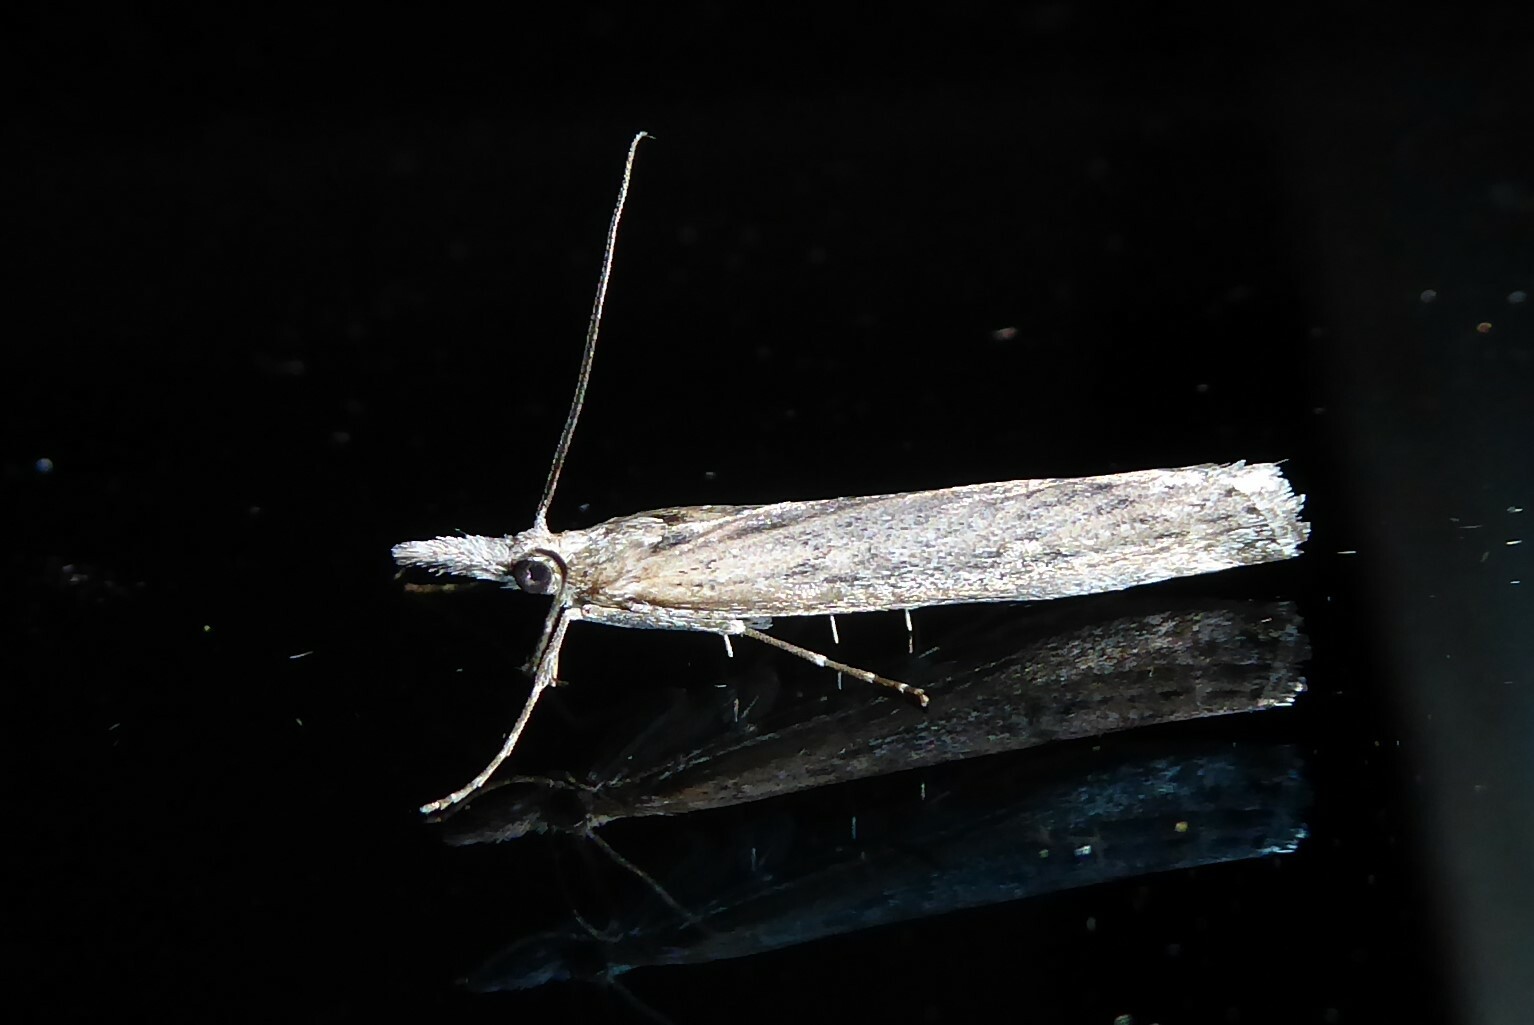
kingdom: Animalia
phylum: Arthropoda
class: Insecta
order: Lepidoptera
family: Crambidae
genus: Orocrambus
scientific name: Orocrambus cyclopicus
